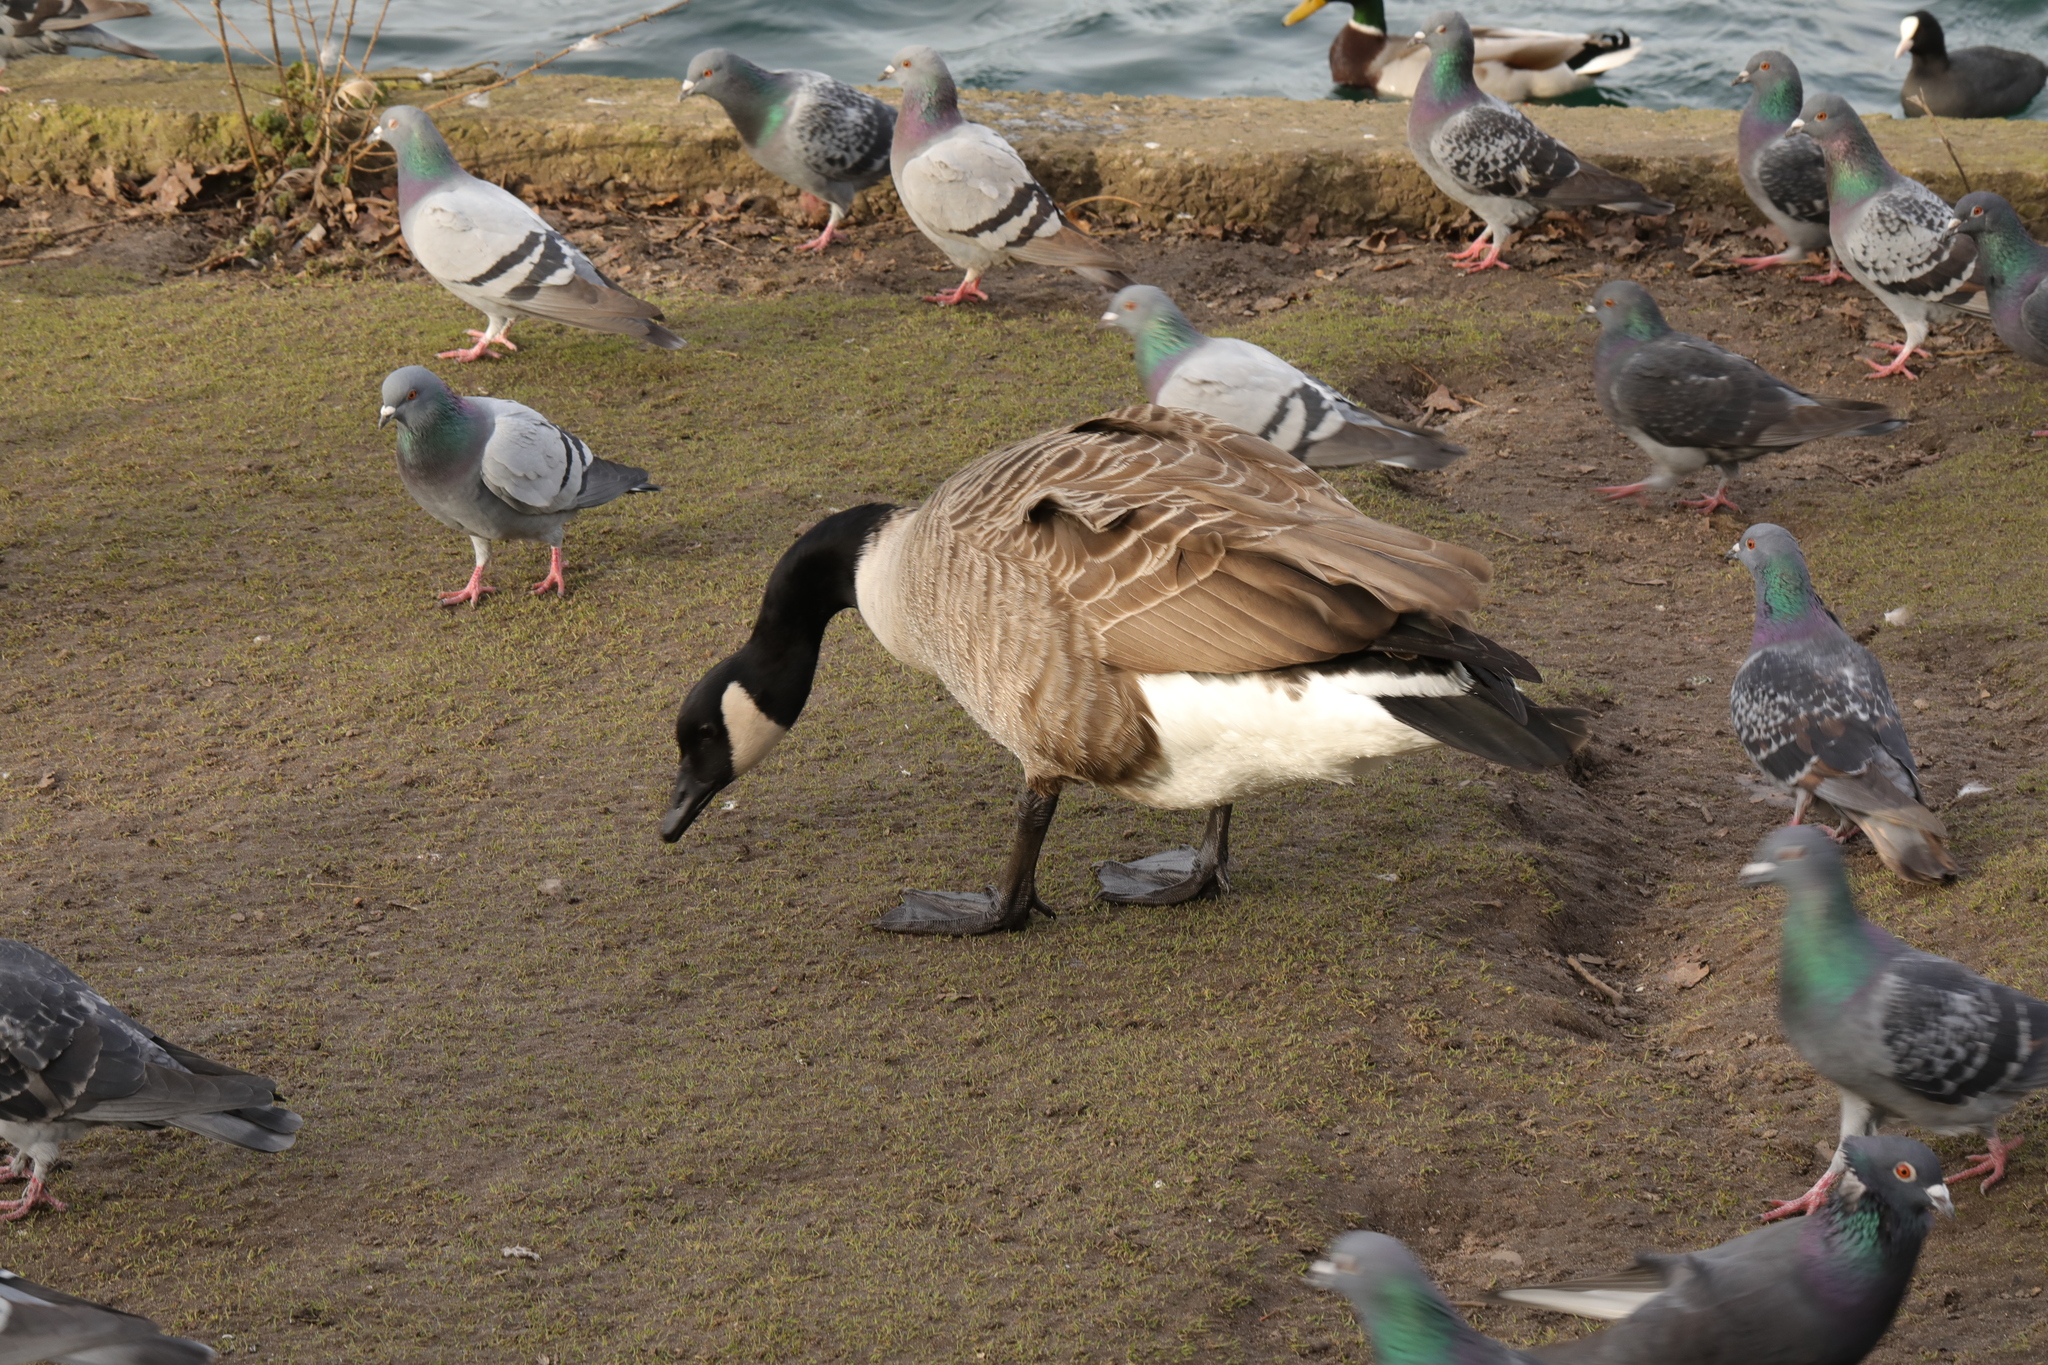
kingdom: Animalia
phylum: Chordata
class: Aves
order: Anseriformes
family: Anatidae
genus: Branta
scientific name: Branta canadensis
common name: Canada goose
